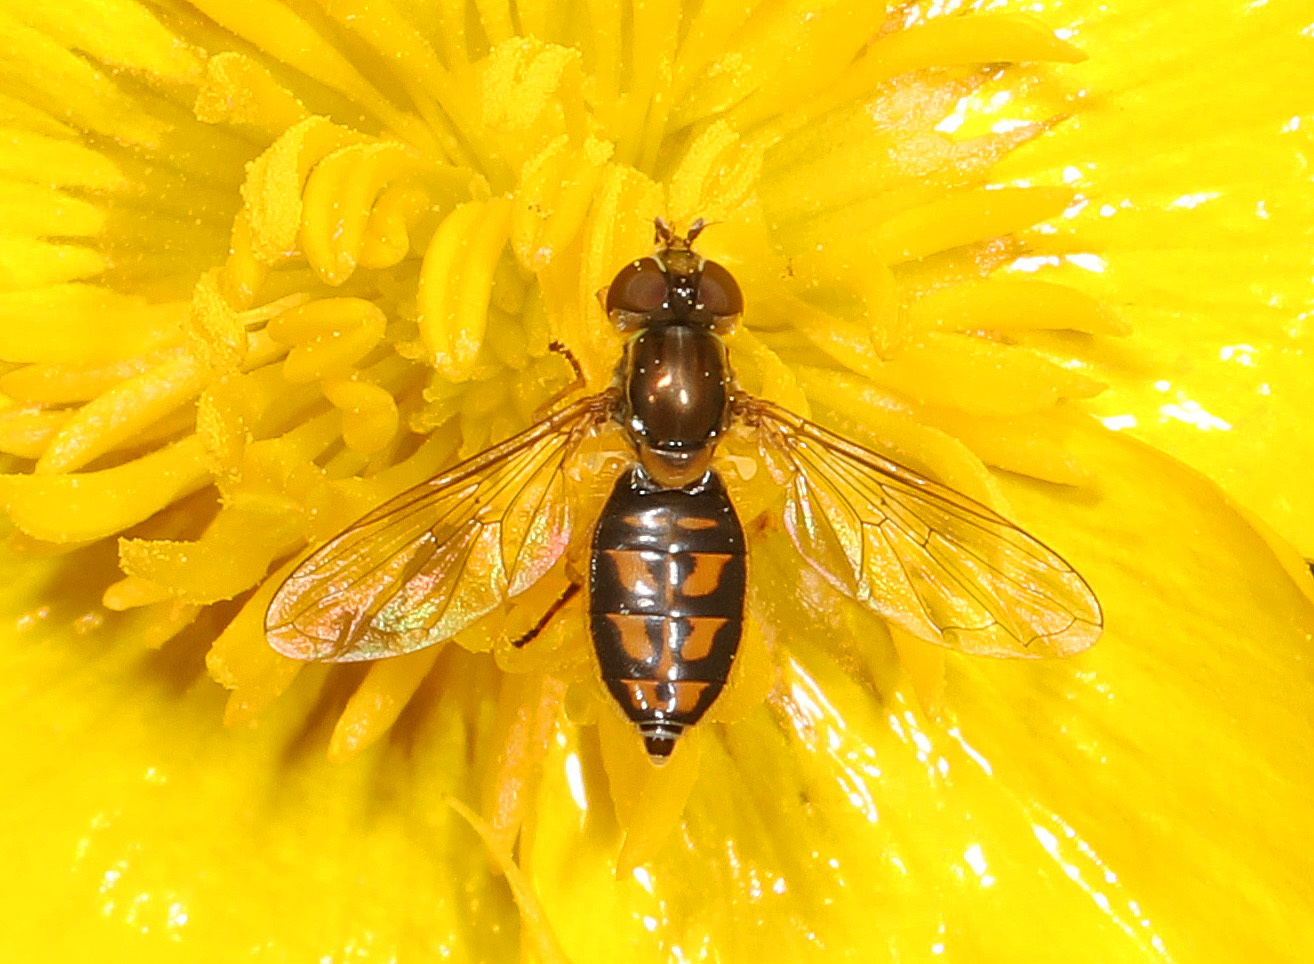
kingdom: Animalia
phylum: Arthropoda
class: Insecta
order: Diptera
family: Syrphidae
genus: Toxomerus
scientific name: Toxomerus marginatus
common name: Syrphid fly
